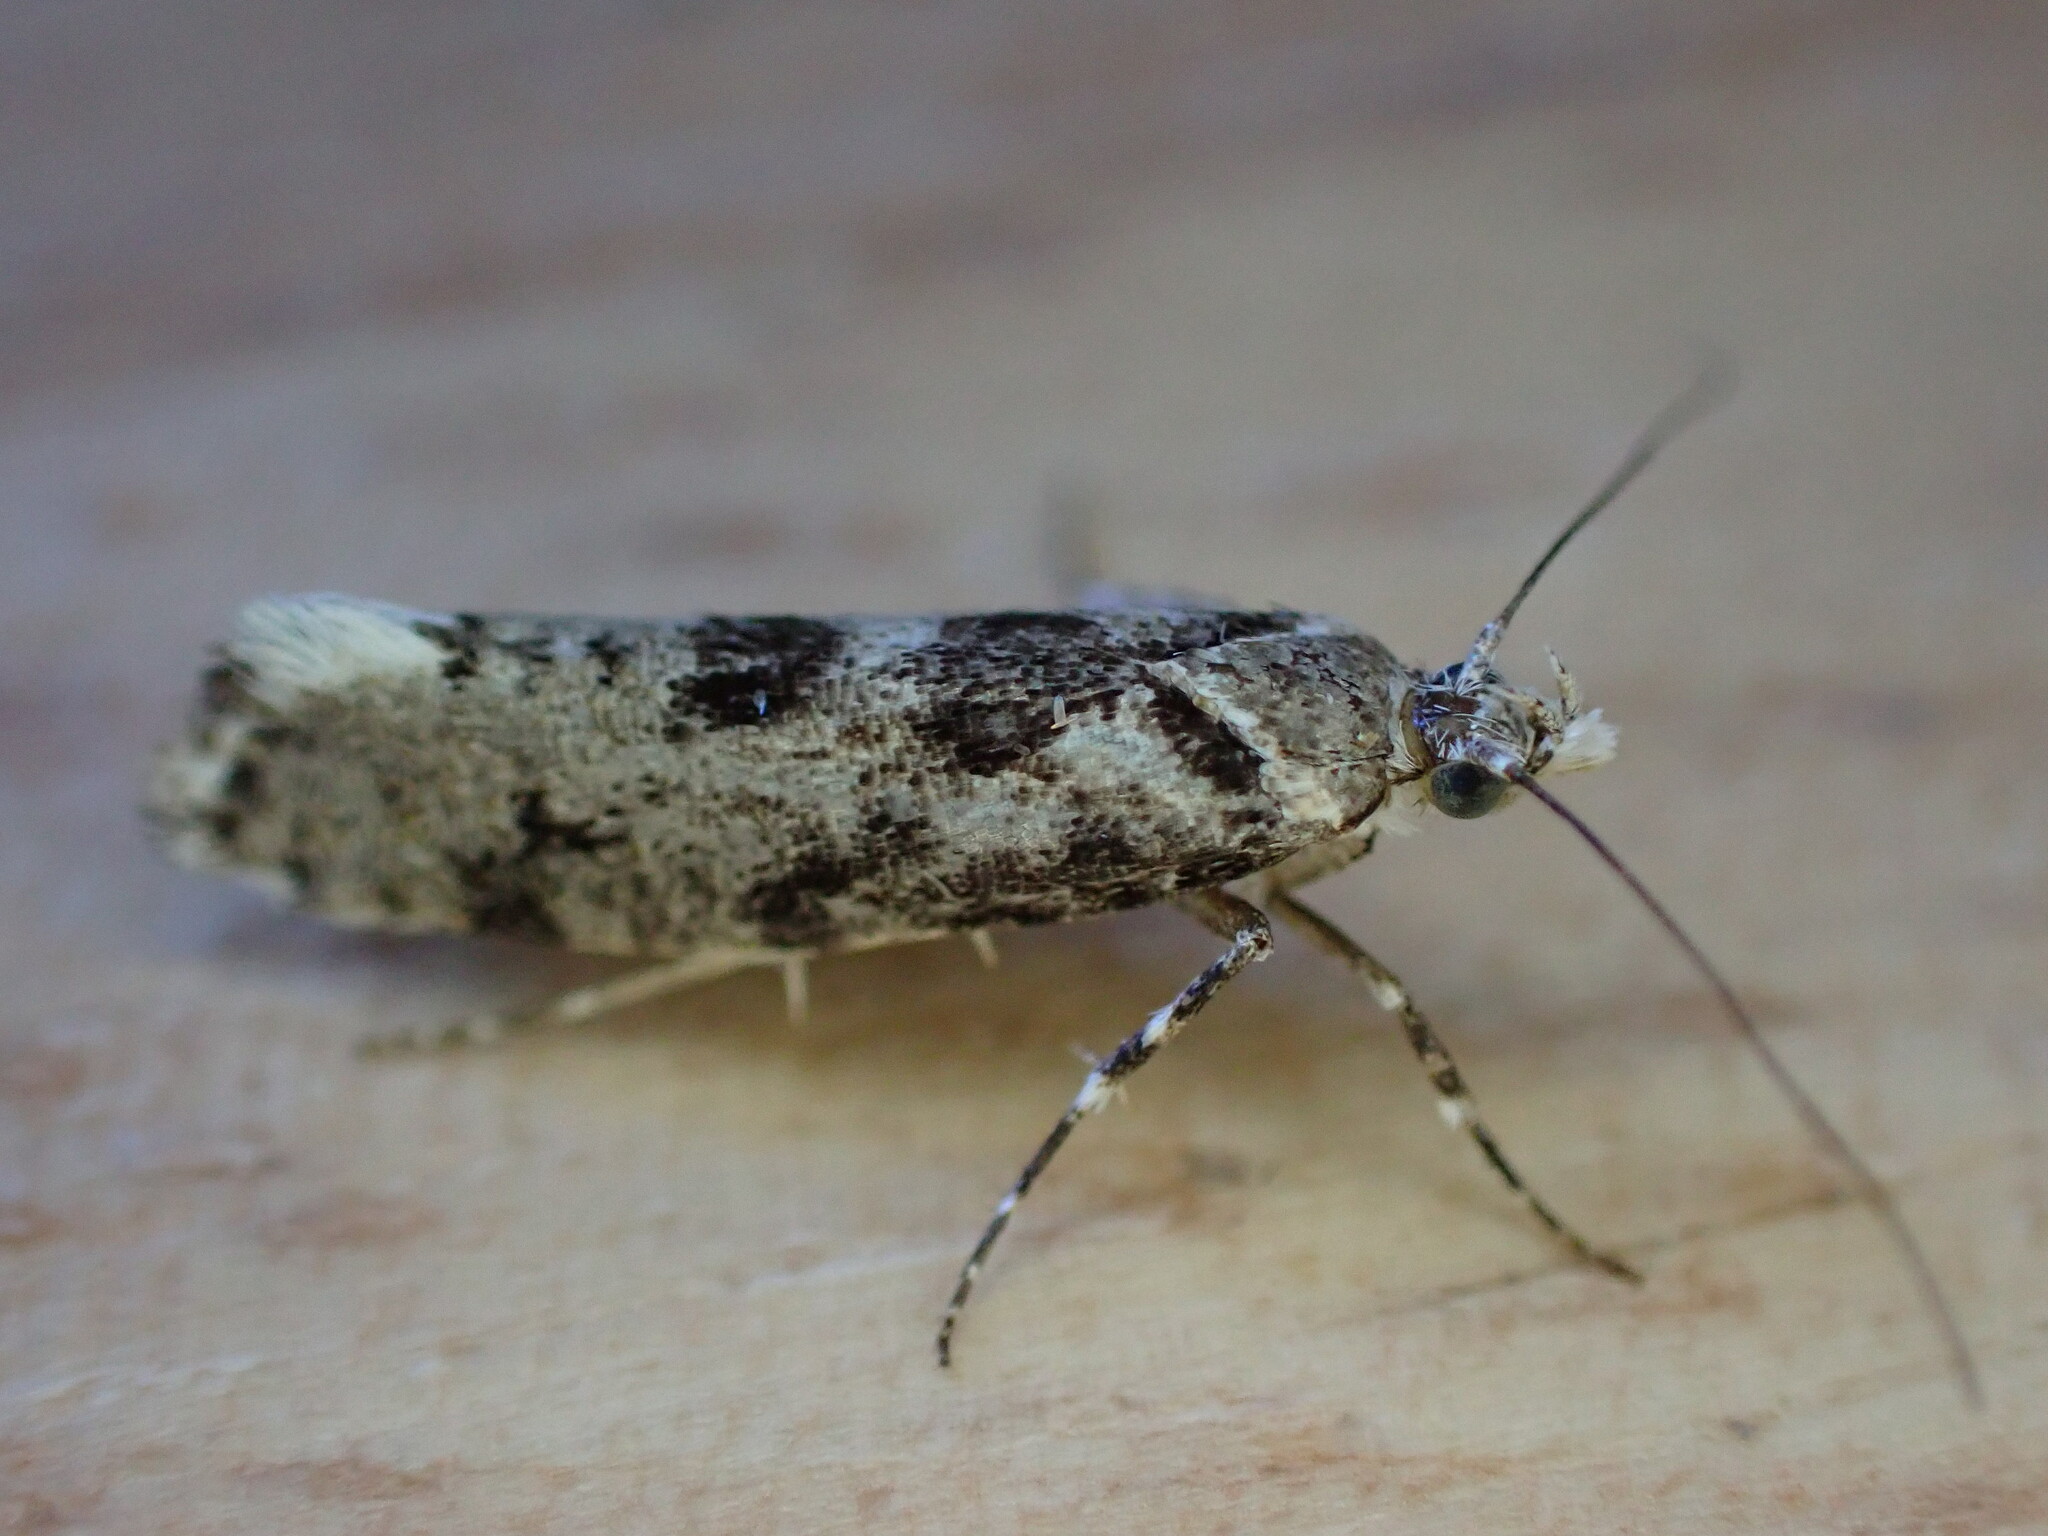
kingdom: Animalia
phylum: Arthropoda
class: Insecta
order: Lepidoptera
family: Plutellidae
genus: Ypsolophus
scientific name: Ypsolophus sequella
